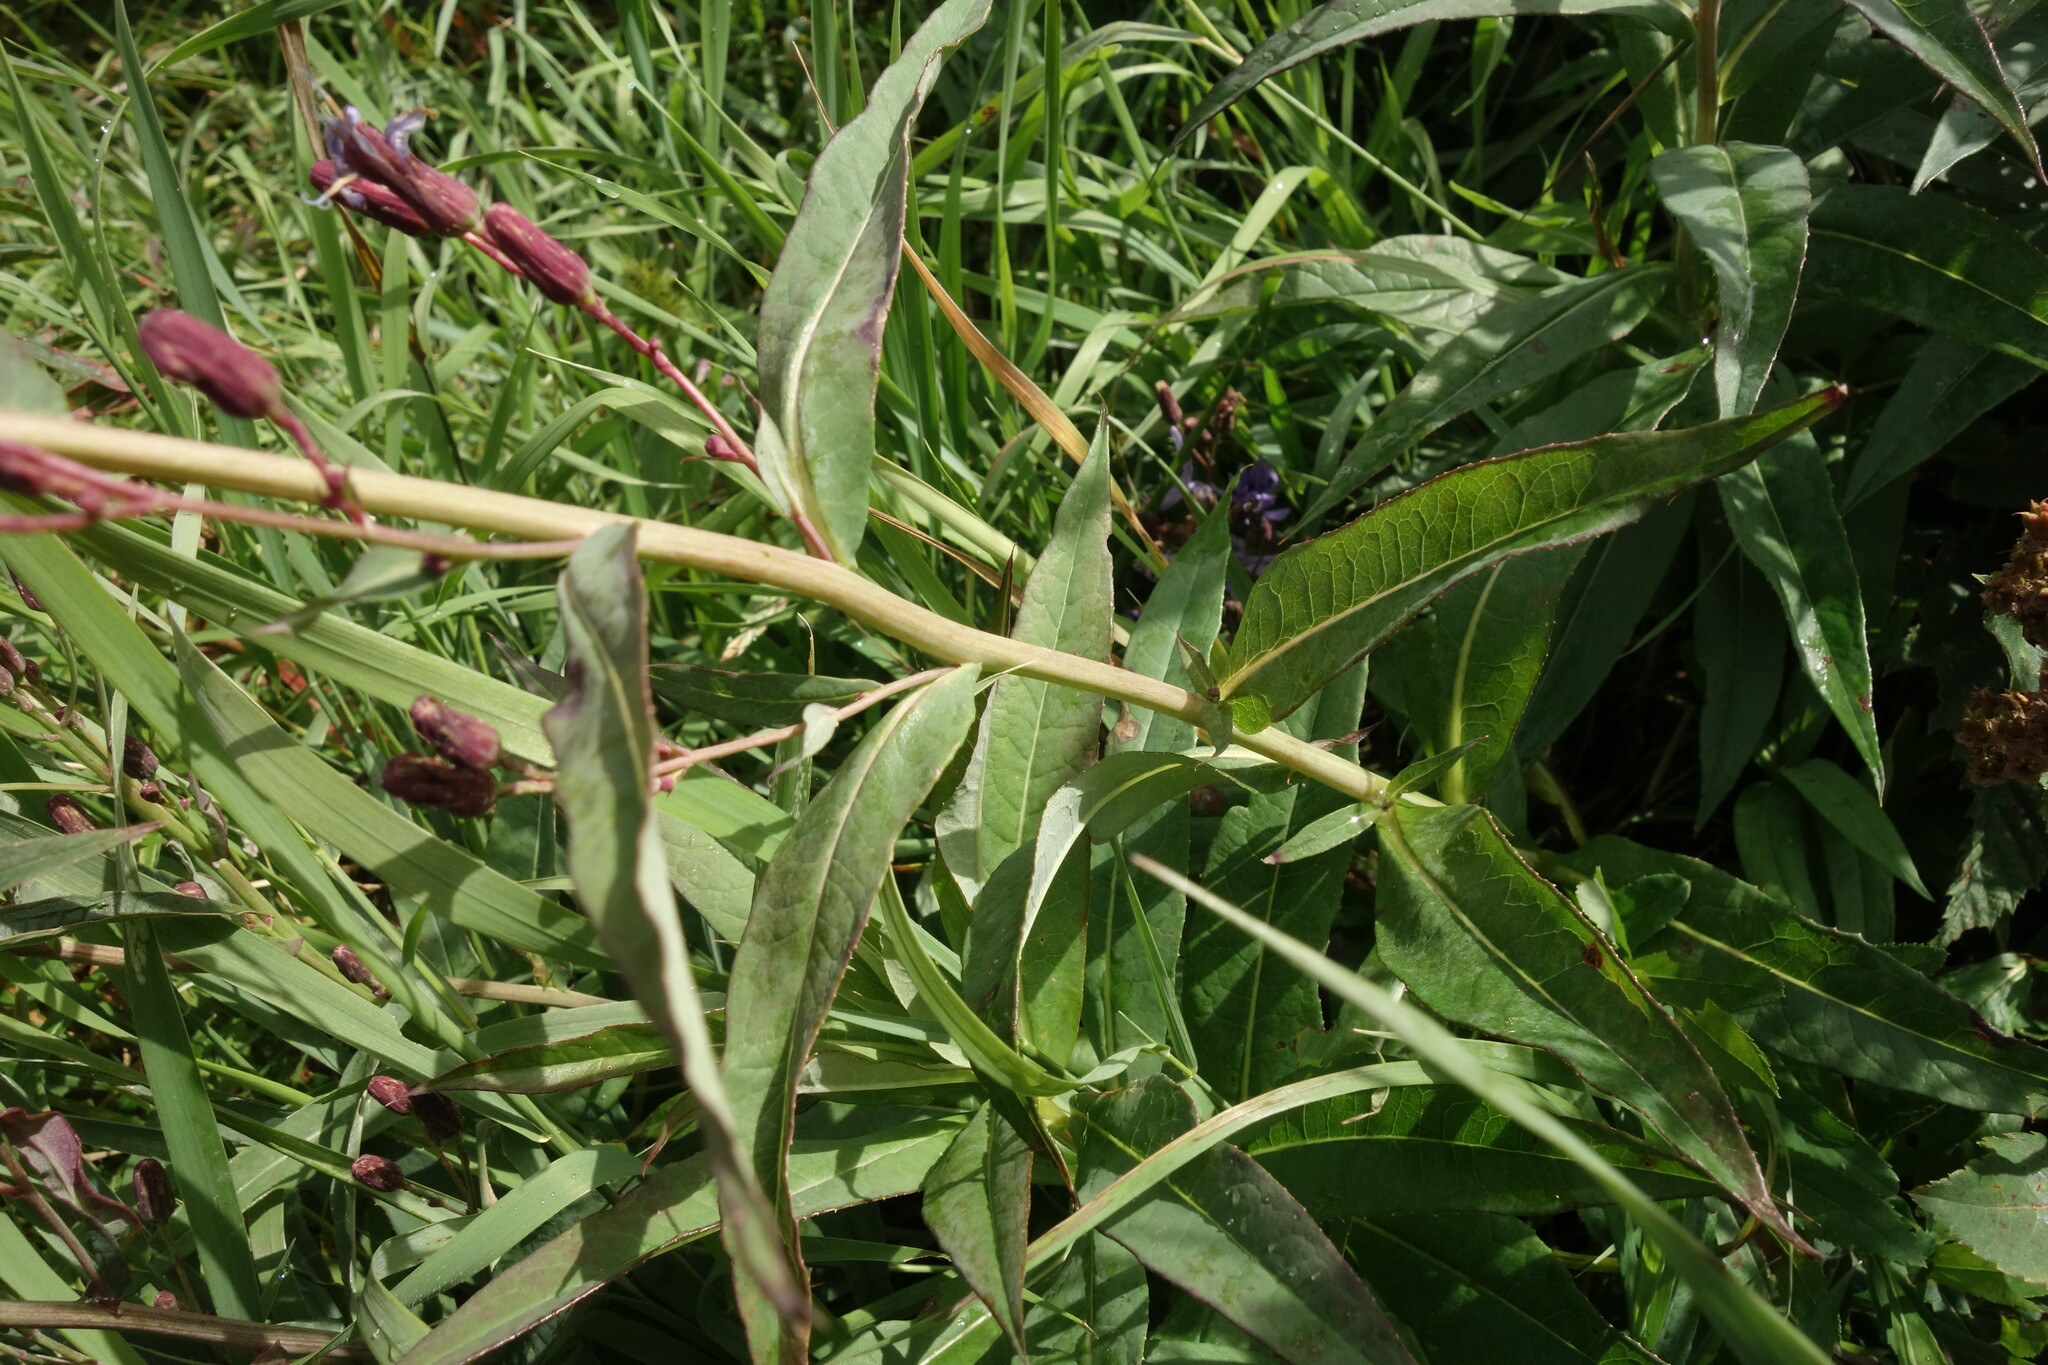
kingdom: Plantae
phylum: Tracheophyta
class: Magnoliopsida
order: Asterales
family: Asteraceae
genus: Lactuca
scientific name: Lactuca sibirica
